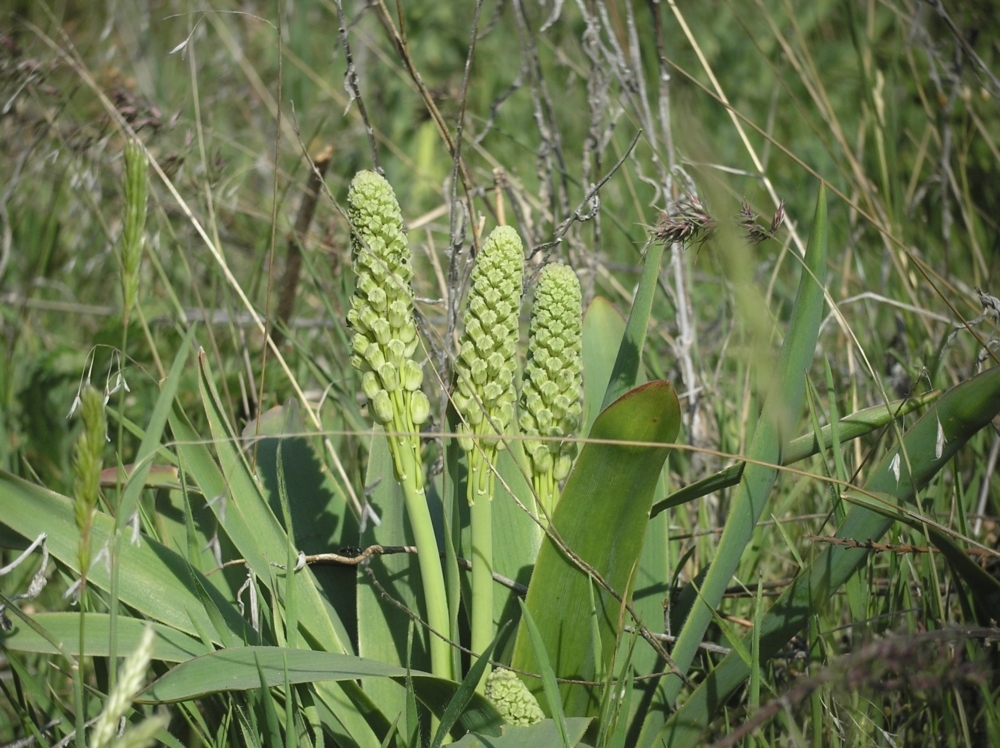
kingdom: Plantae
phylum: Tracheophyta
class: Liliopsida
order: Asparagales
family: Asparagaceae
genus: Bellevalia
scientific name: Bellevalia speciosa
